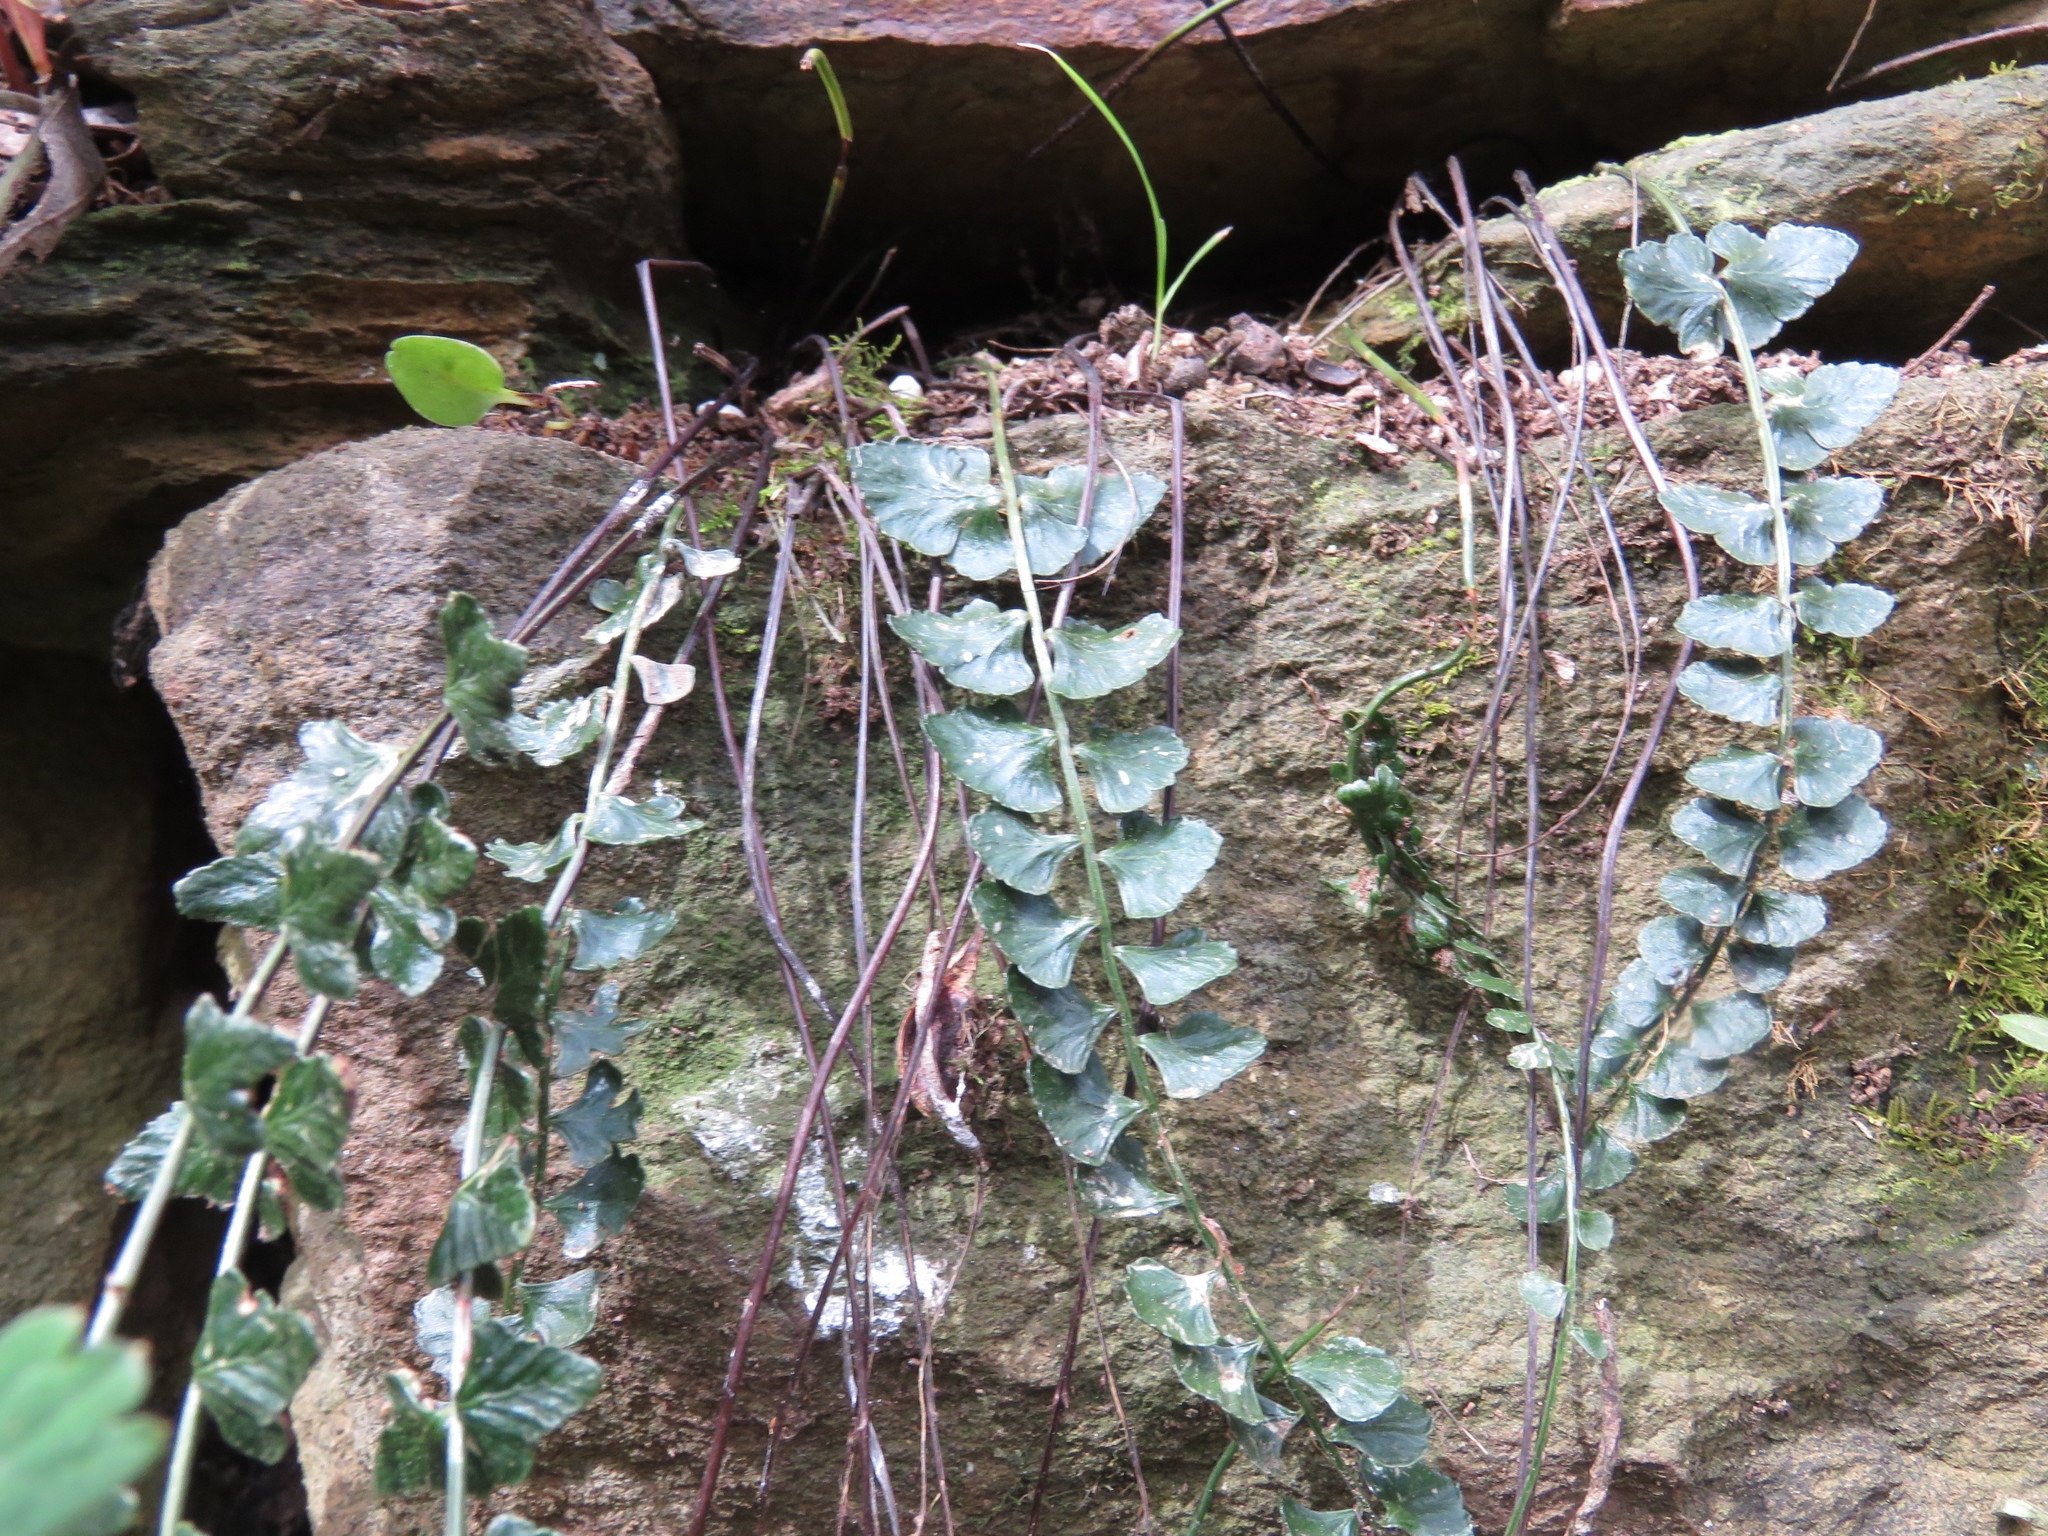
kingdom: Plantae
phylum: Tracheophyta
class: Polypodiopsida
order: Polypodiales
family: Aspleniaceae
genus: Asplenium
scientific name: Asplenium flabellifolium
